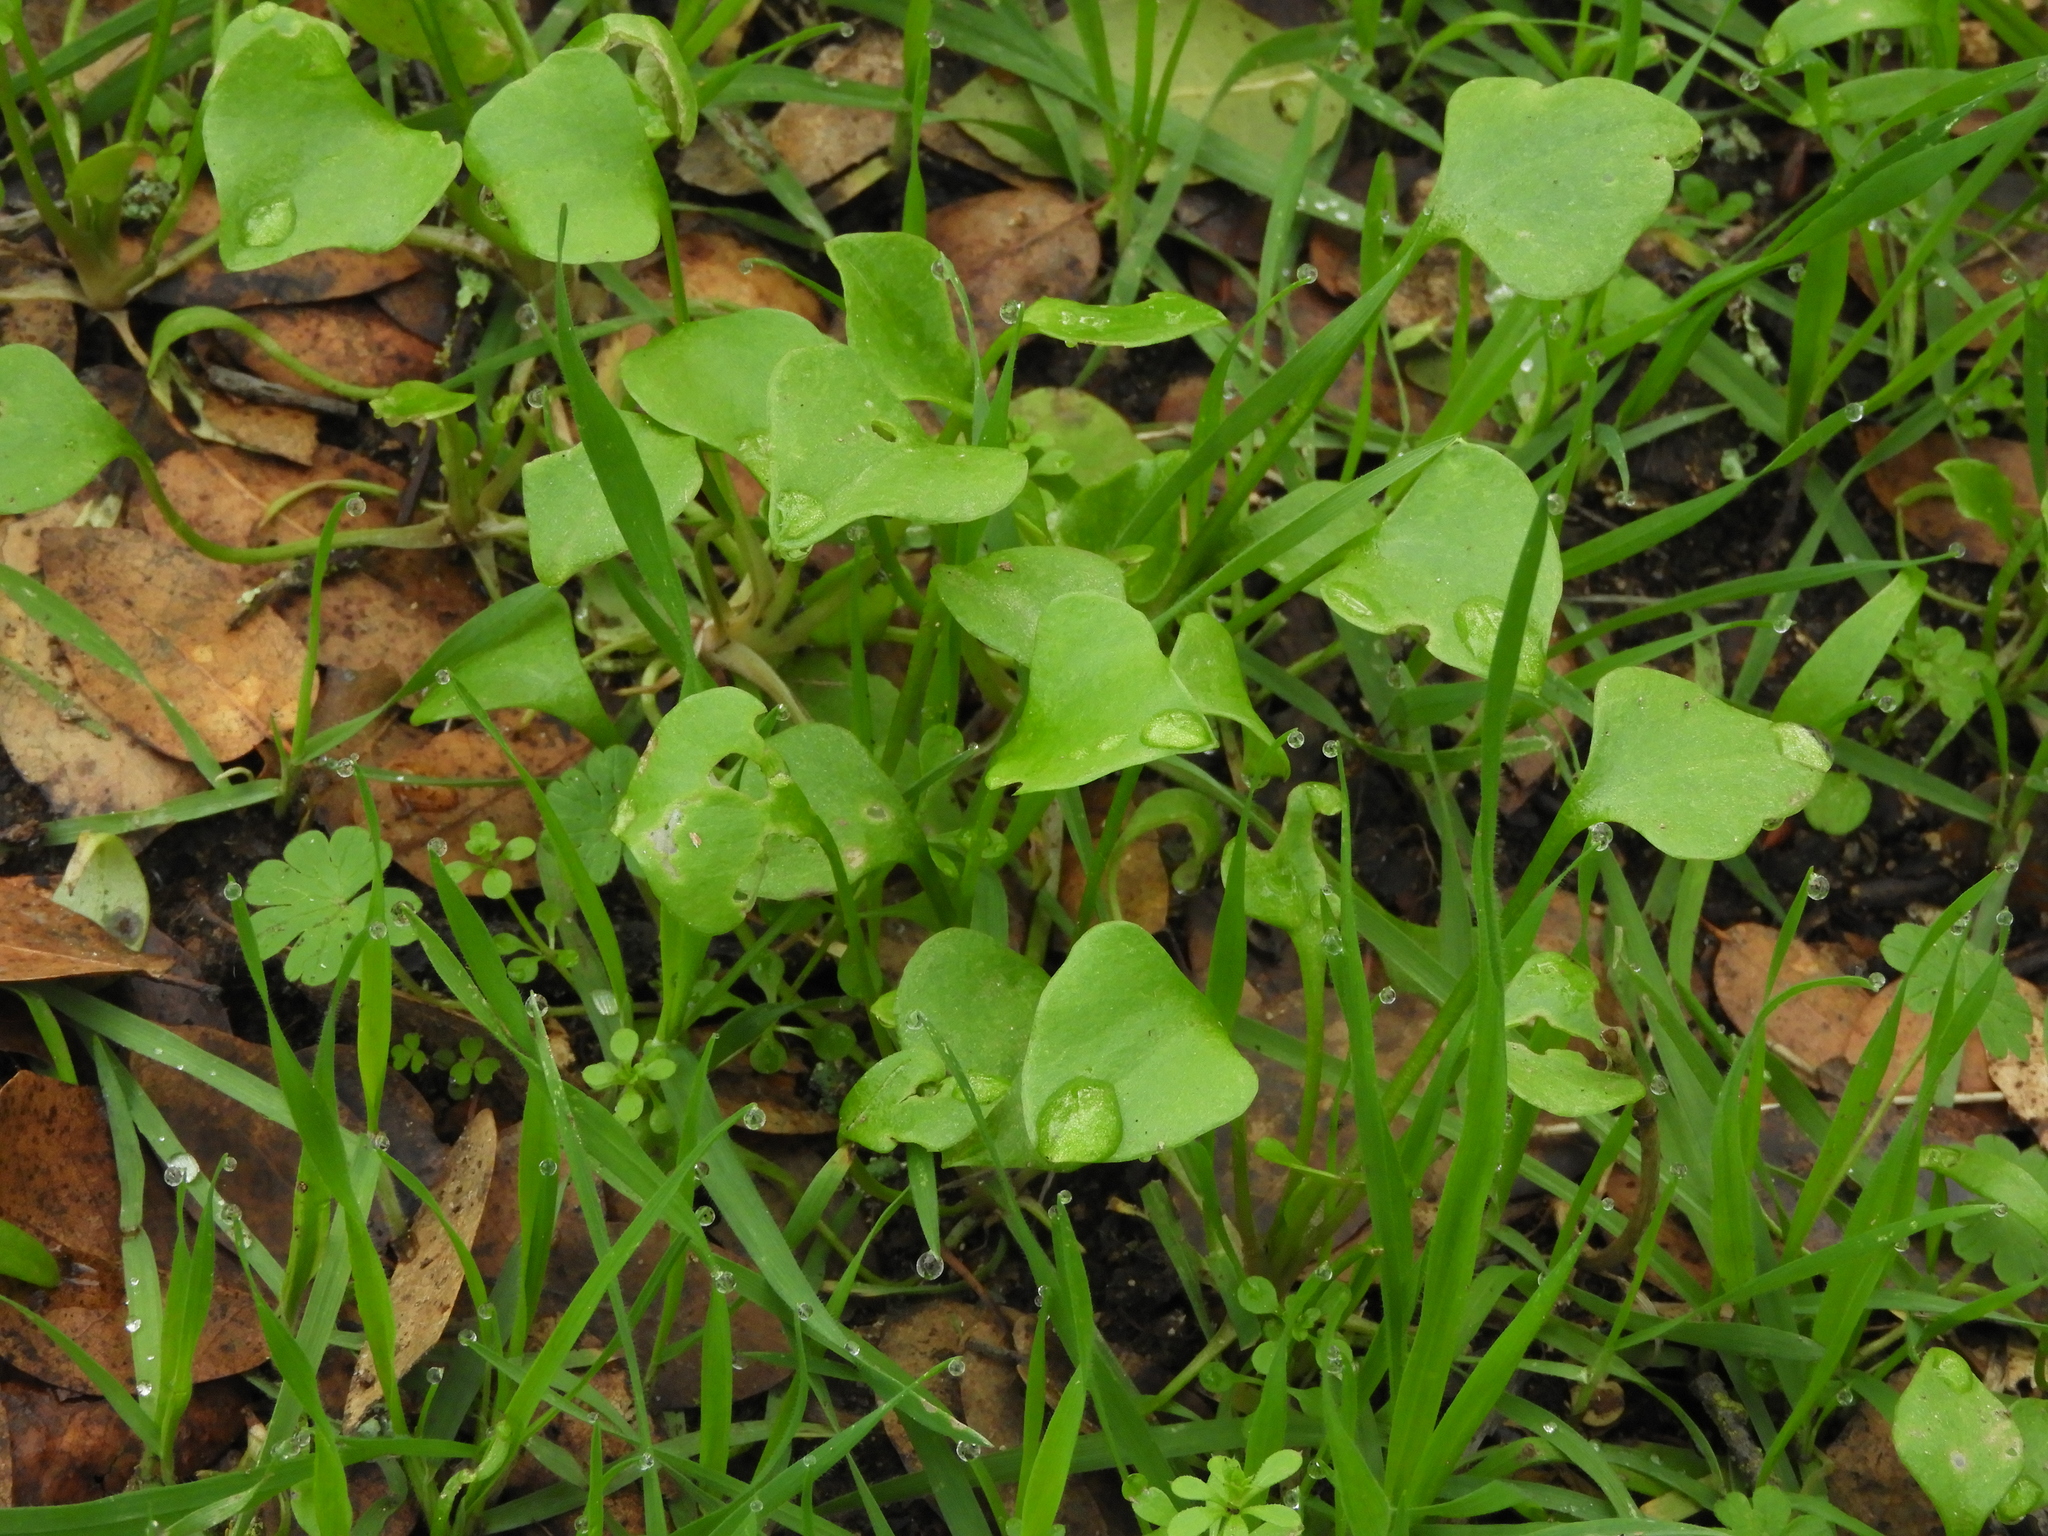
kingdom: Plantae
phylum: Tracheophyta
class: Magnoliopsida
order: Caryophyllales
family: Montiaceae
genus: Claytonia
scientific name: Claytonia perfoliata
